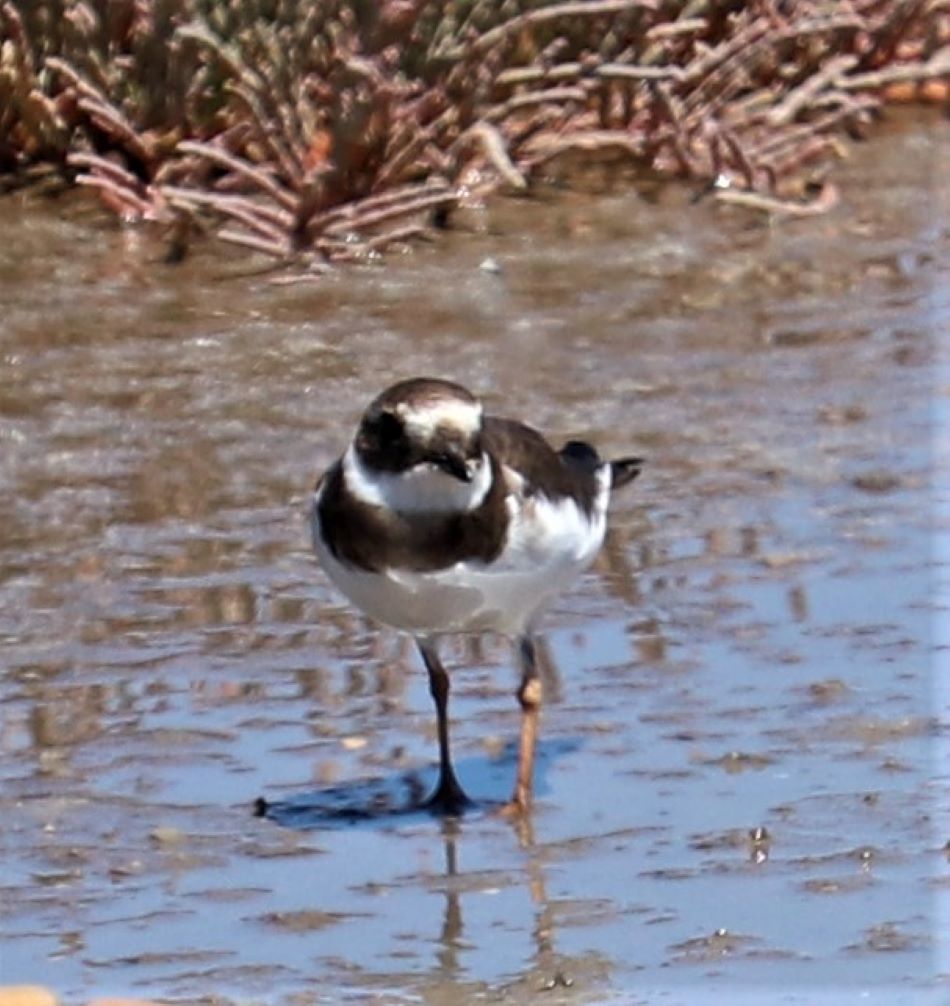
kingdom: Animalia
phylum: Chordata
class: Aves
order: Charadriiformes
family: Charadriidae
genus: Charadrius
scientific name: Charadrius hiaticula
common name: Common ringed plover
